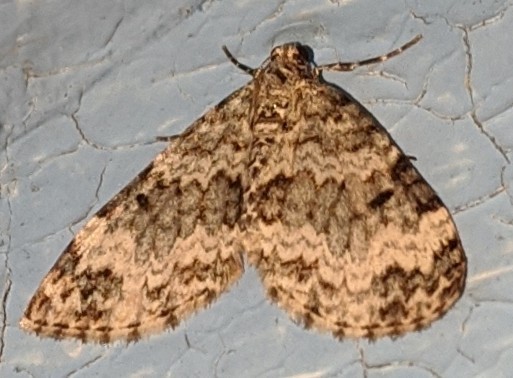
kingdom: Animalia
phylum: Arthropoda
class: Insecta
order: Lepidoptera
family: Geometridae
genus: Spargania
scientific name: Spargania magnoliata
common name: Double-banded carpet
